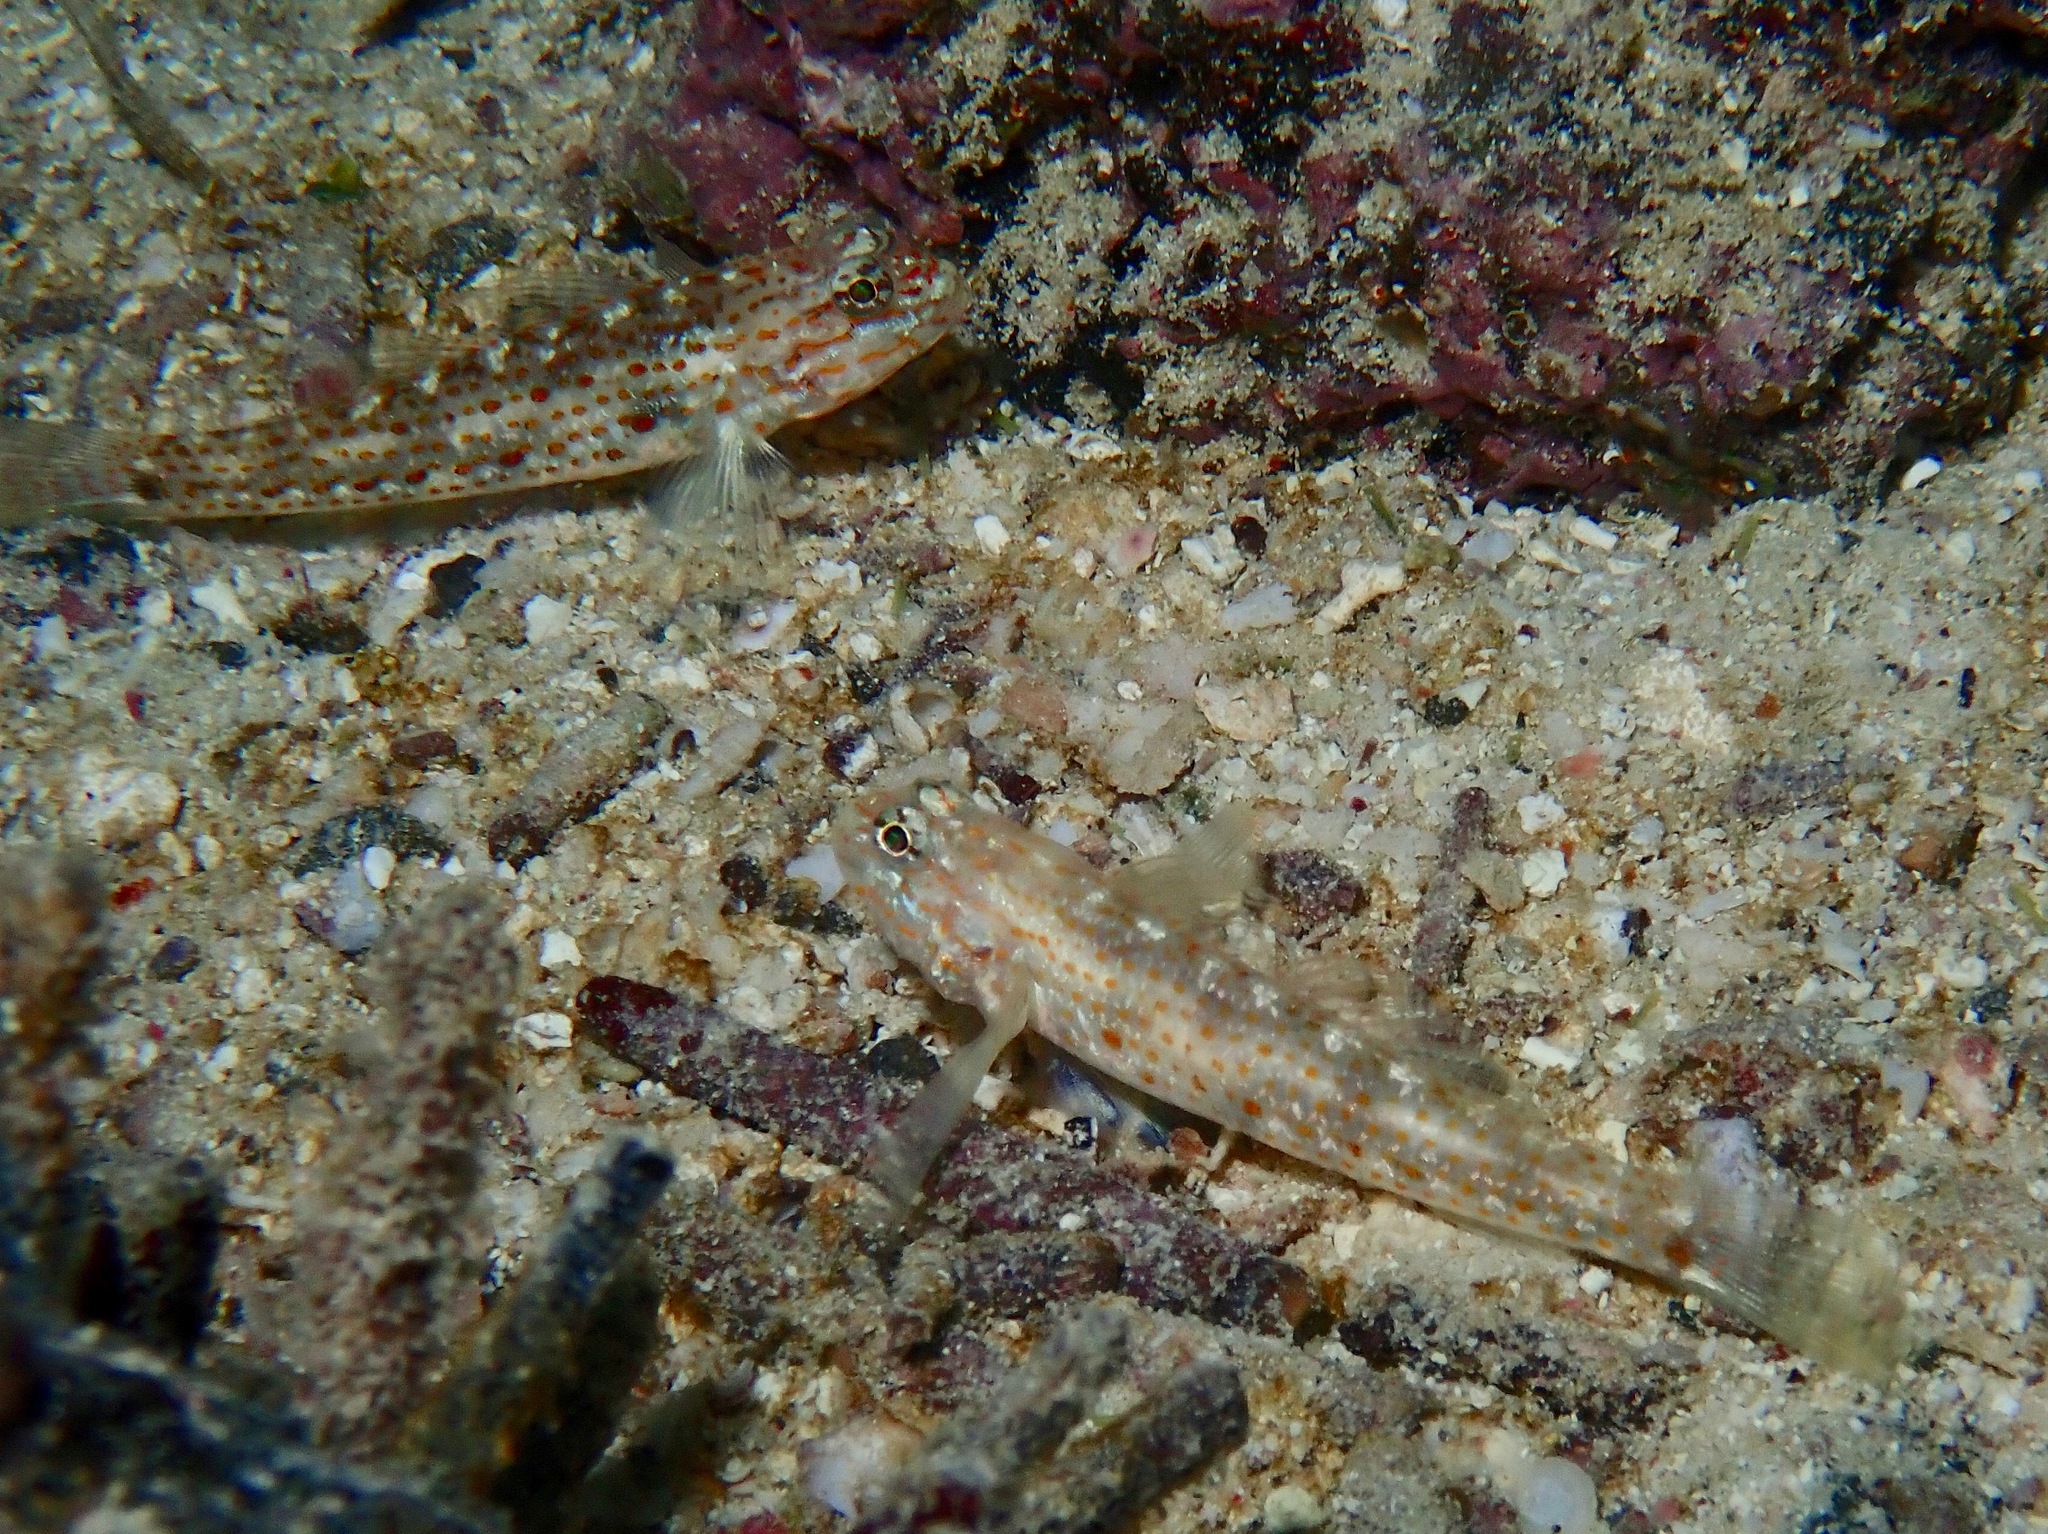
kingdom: Animalia
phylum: Chordata
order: Perciformes
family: Gobiidae
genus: Coryphopterus
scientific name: Coryphopterus urospilus
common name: Redlight goby
